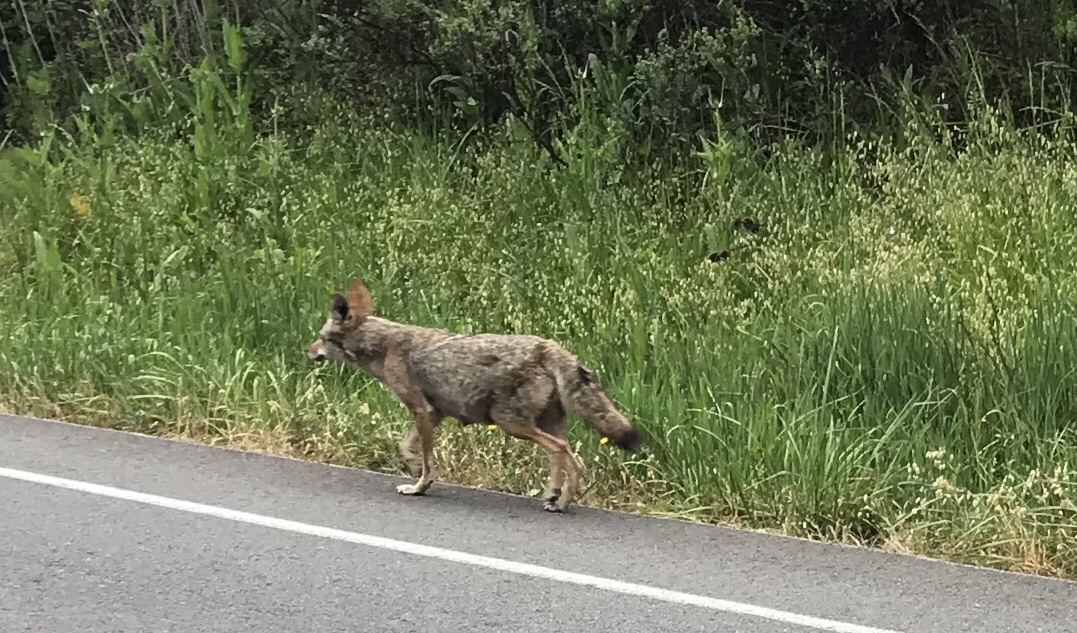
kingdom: Animalia
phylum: Chordata
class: Mammalia
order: Carnivora
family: Canidae
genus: Canis
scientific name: Canis latrans
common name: Coyote
